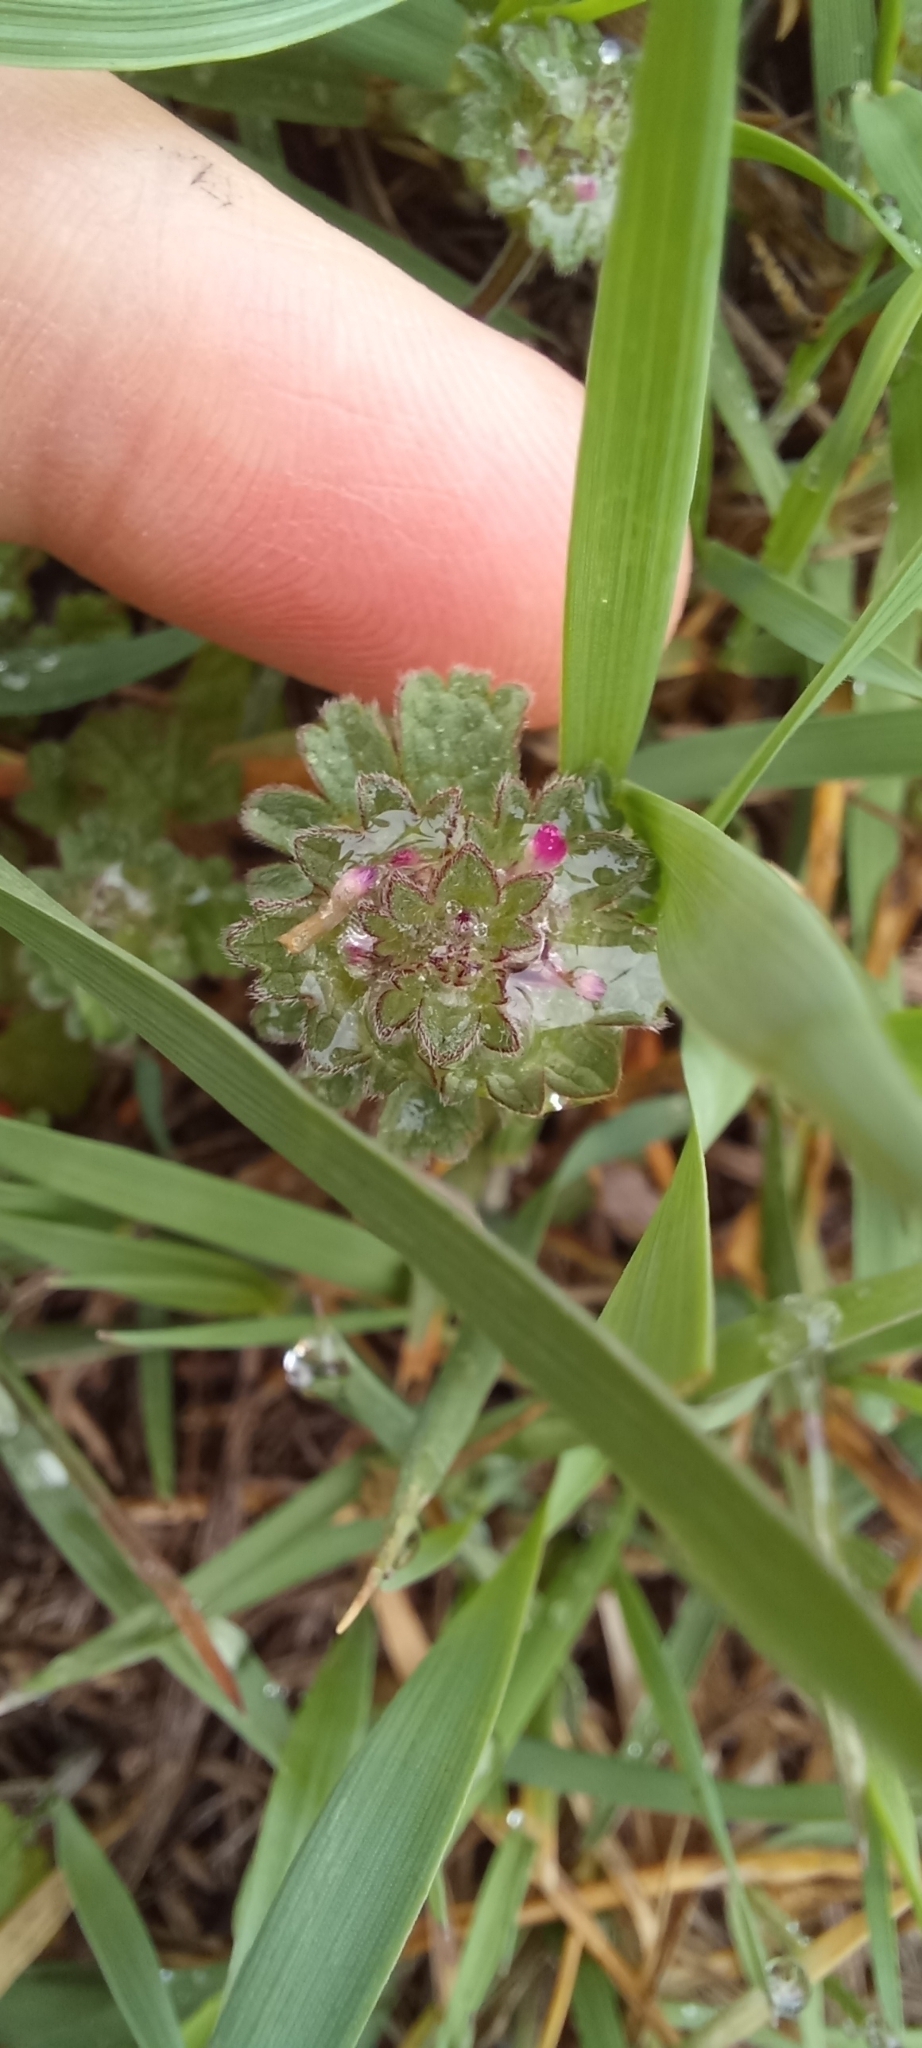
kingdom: Plantae
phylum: Tracheophyta
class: Magnoliopsida
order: Lamiales
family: Lamiaceae
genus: Lamium
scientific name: Lamium amplexicaule
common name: Henbit dead-nettle
